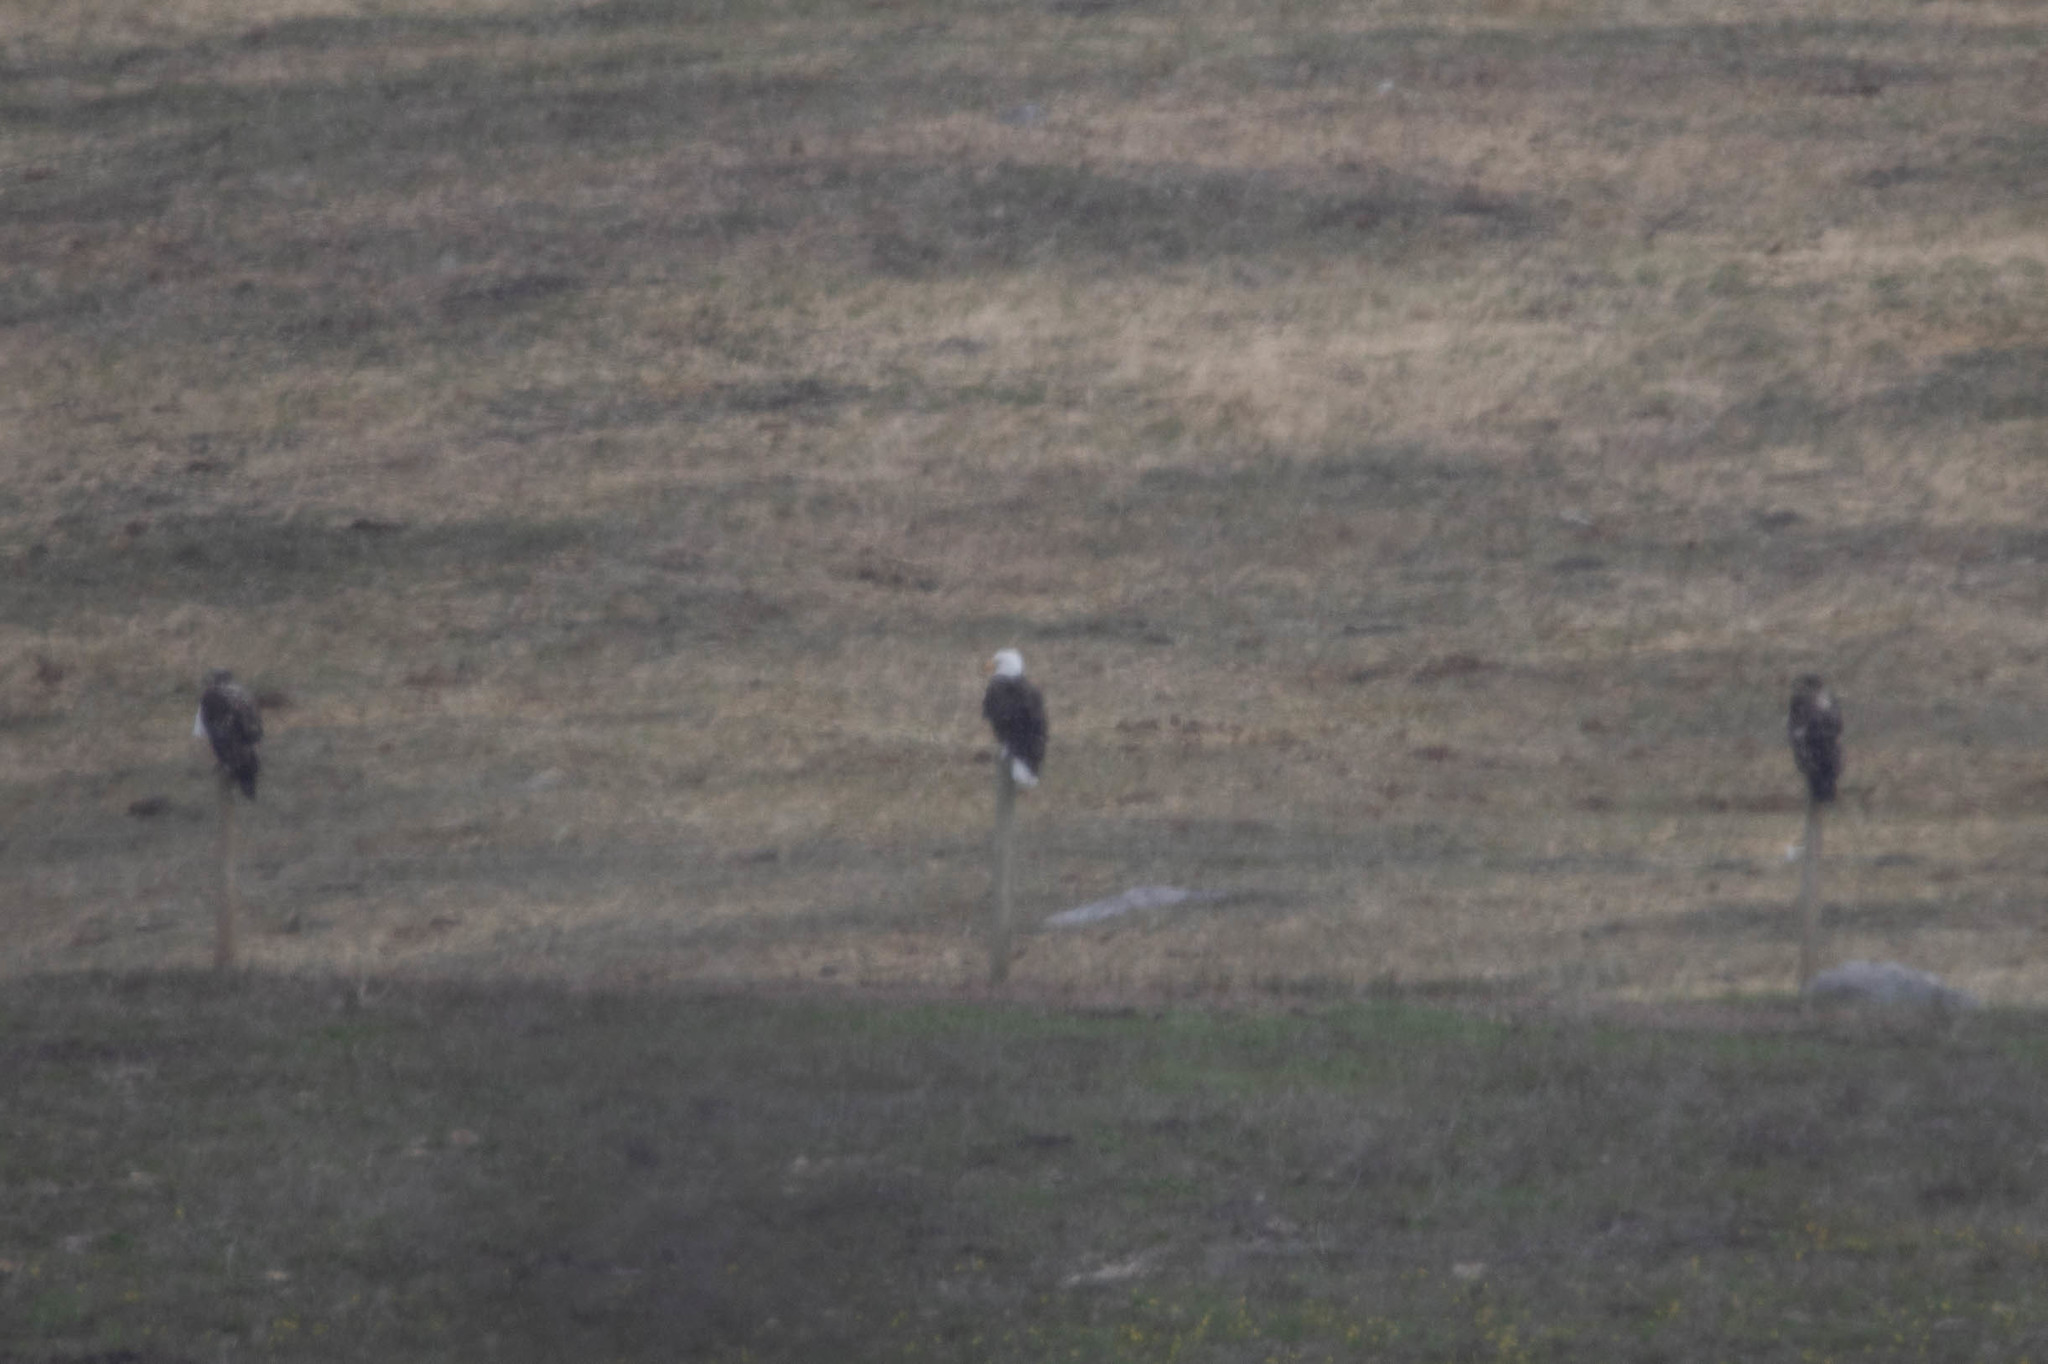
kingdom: Animalia
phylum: Chordata
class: Aves
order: Accipitriformes
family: Accipitridae
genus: Haliaeetus
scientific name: Haliaeetus leucocephalus
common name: Bald eagle
